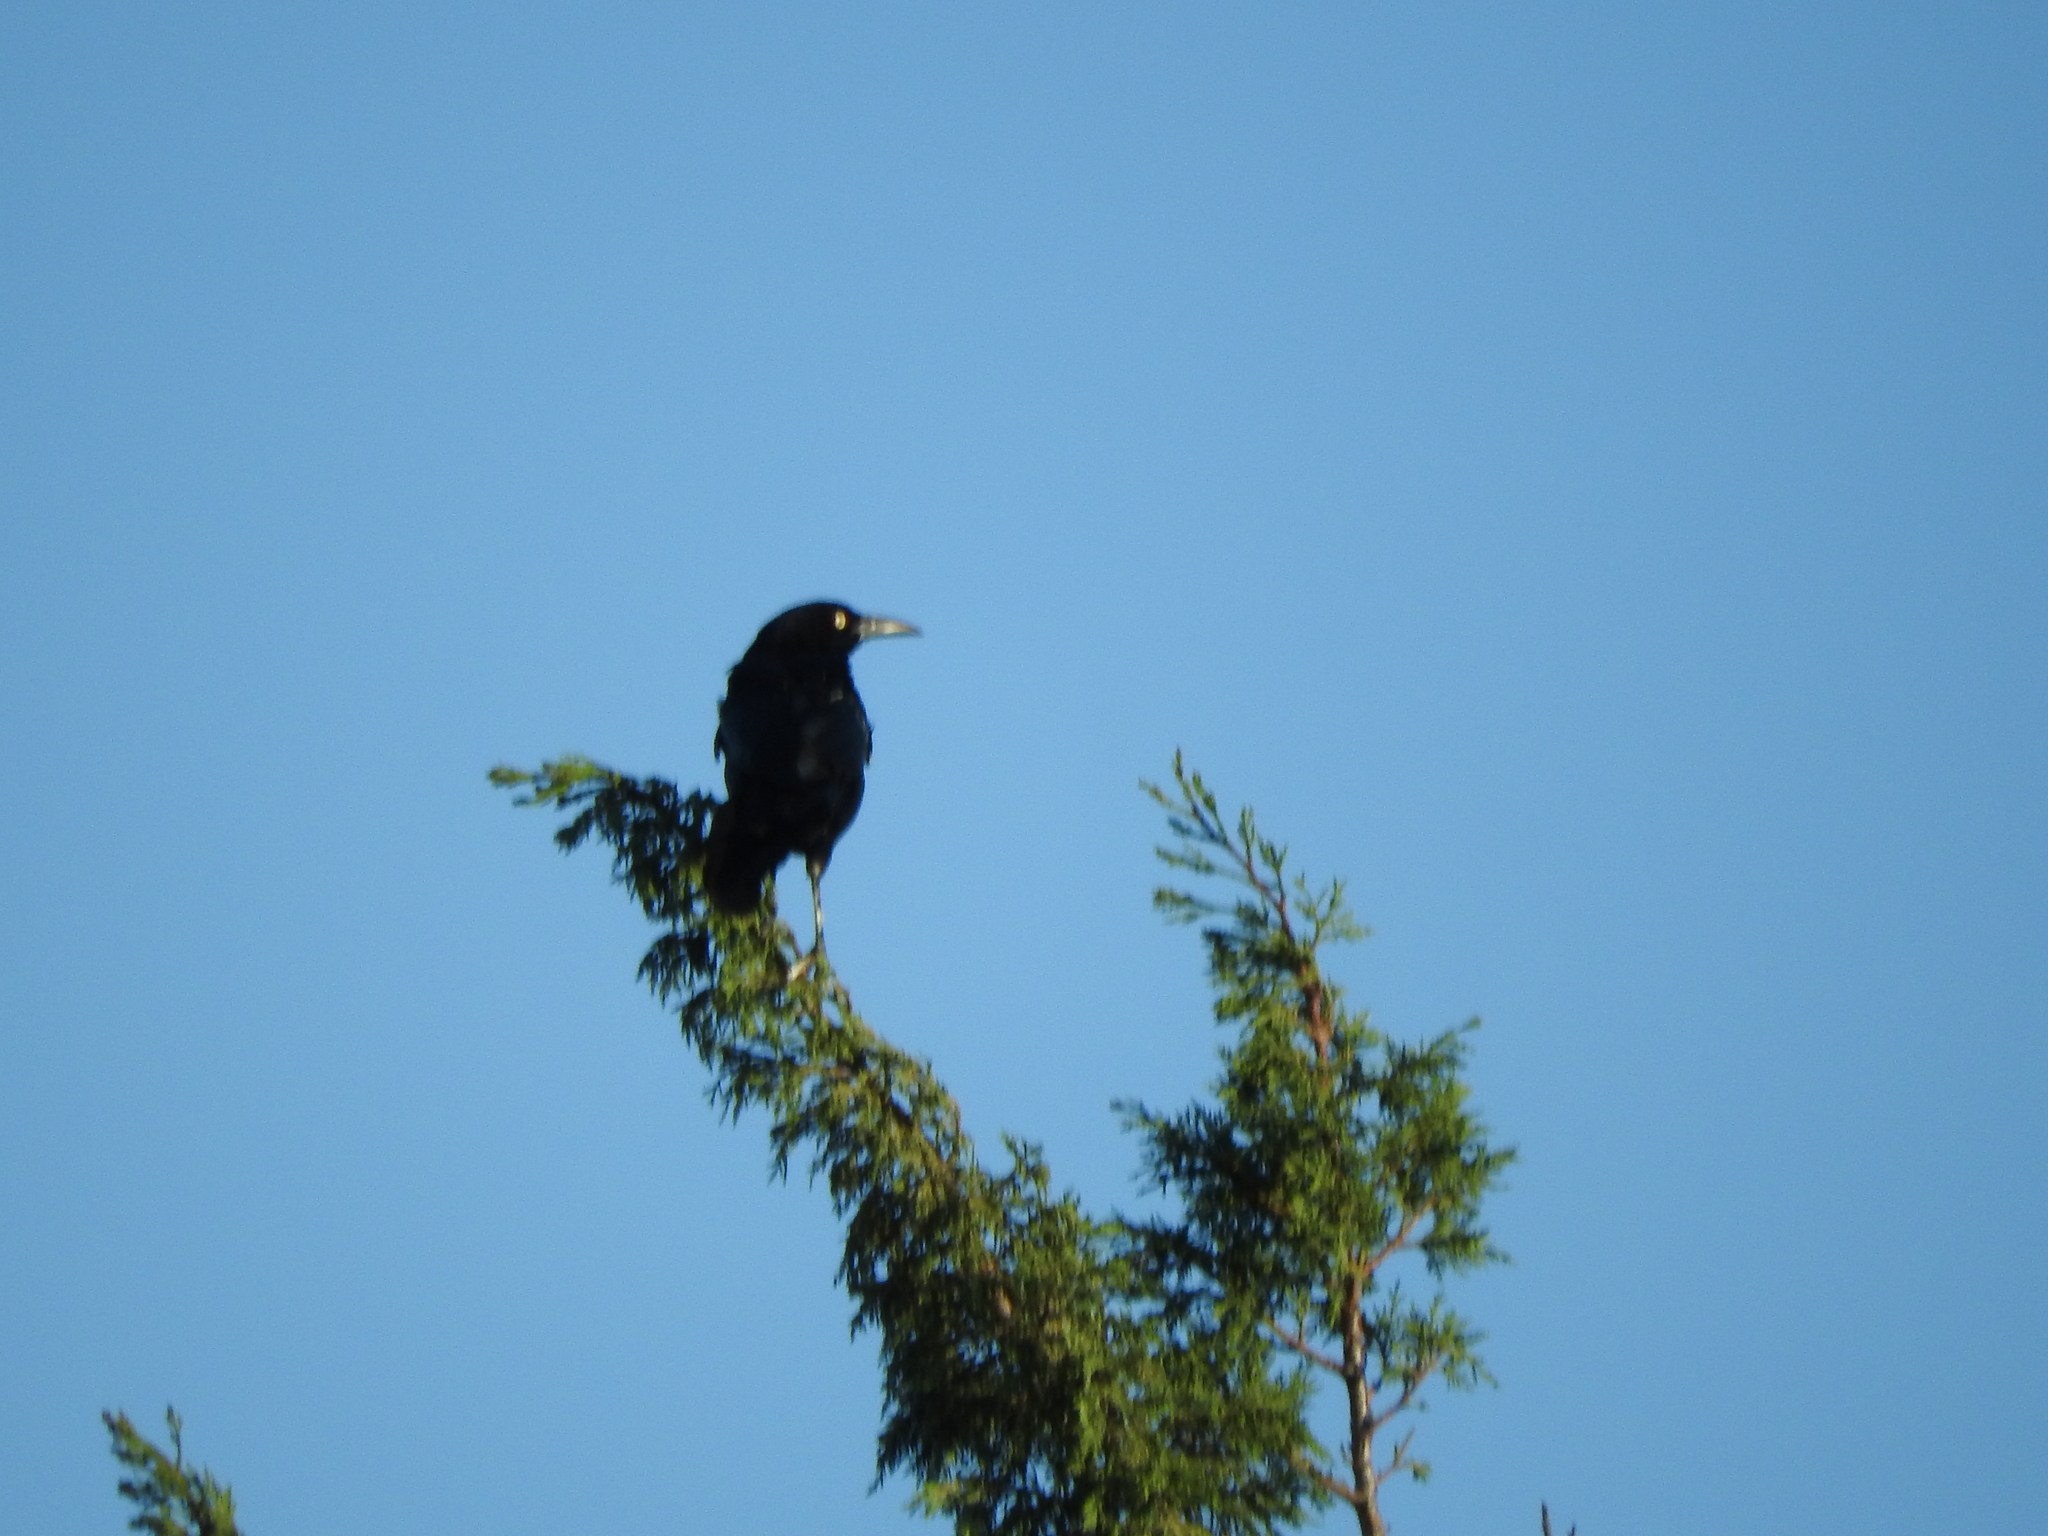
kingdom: Animalia
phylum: Chordata
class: Aves
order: Passeriformes
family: Icteridae
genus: Quiscalus
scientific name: Quiscalus mexicanus
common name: Great-tailed grackle
